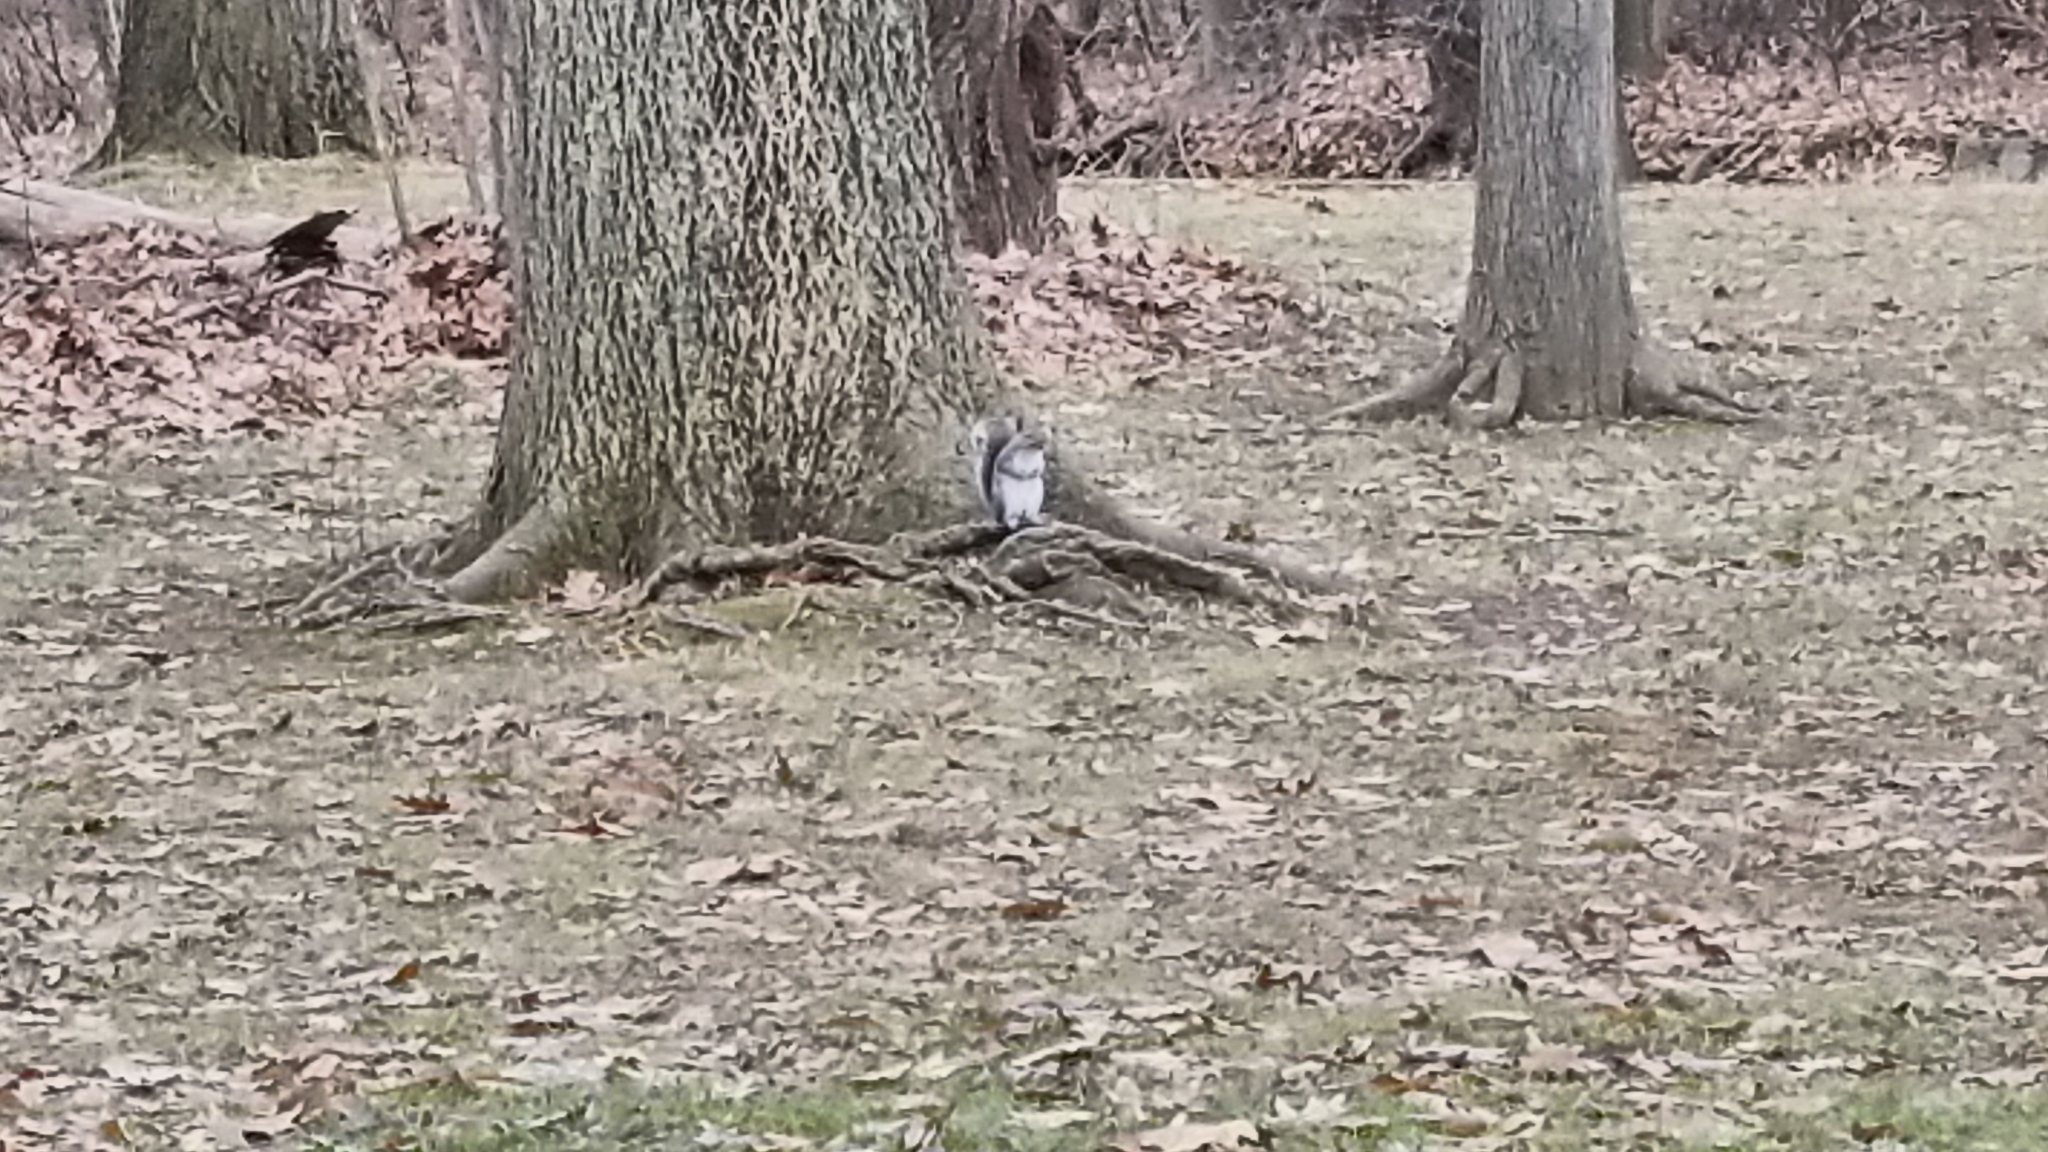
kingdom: Animalia
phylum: Chordata
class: Mammalia
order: Rodentia
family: Sciuridae
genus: Sciurus
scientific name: Sciurus carolinensis
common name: Eastern gray squirrel
